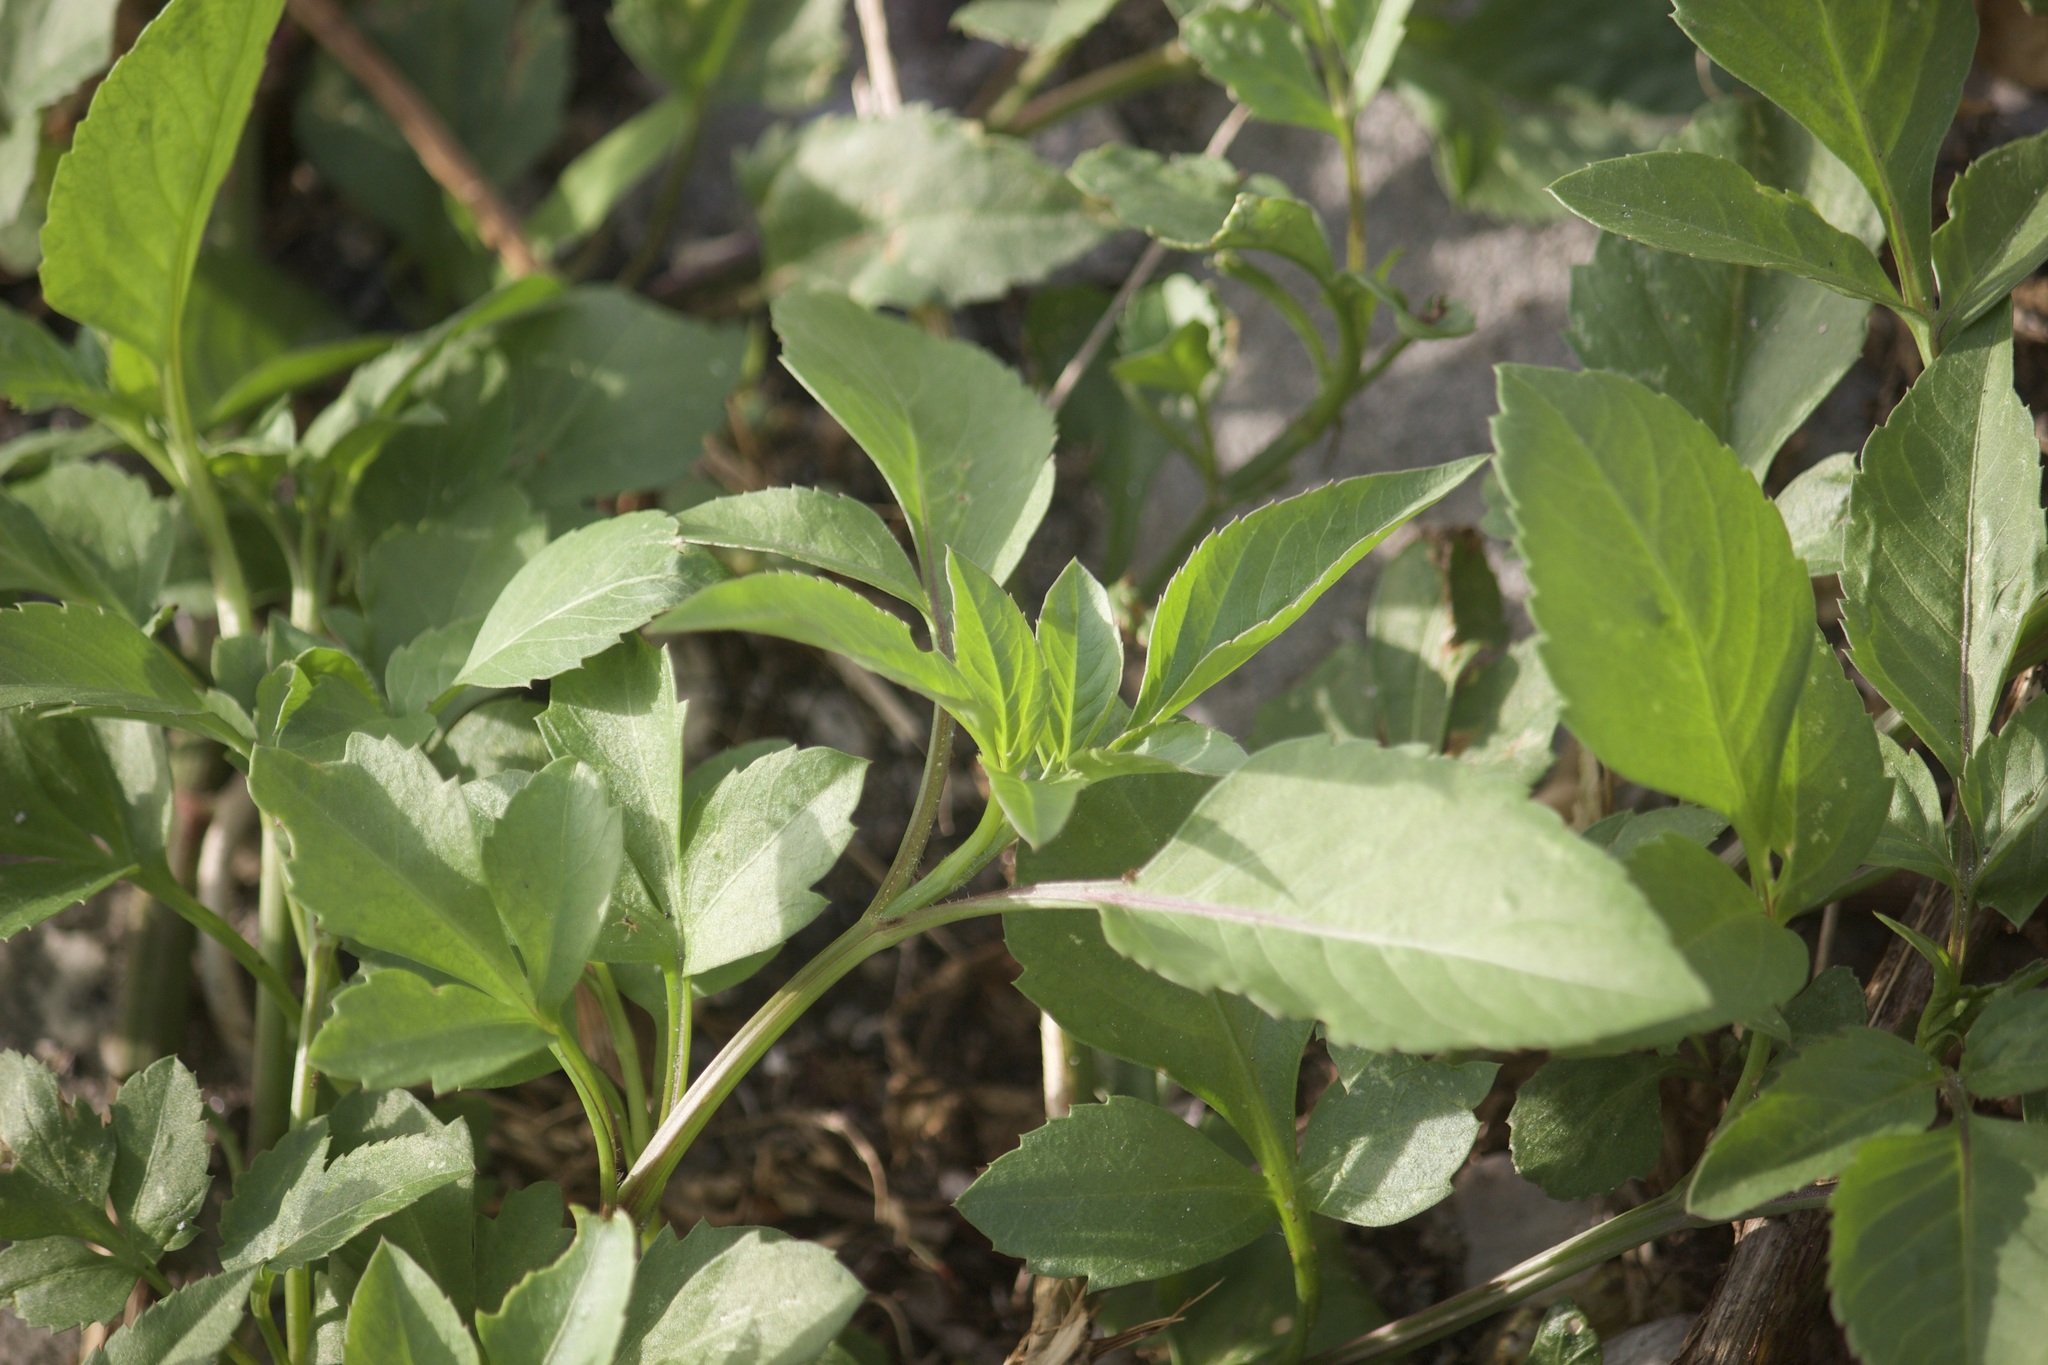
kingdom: Plantae
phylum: Tracheophyta
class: Magnoliopsida
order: Asterales
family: Asteraceae
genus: Bidens
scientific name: Bidens alba
